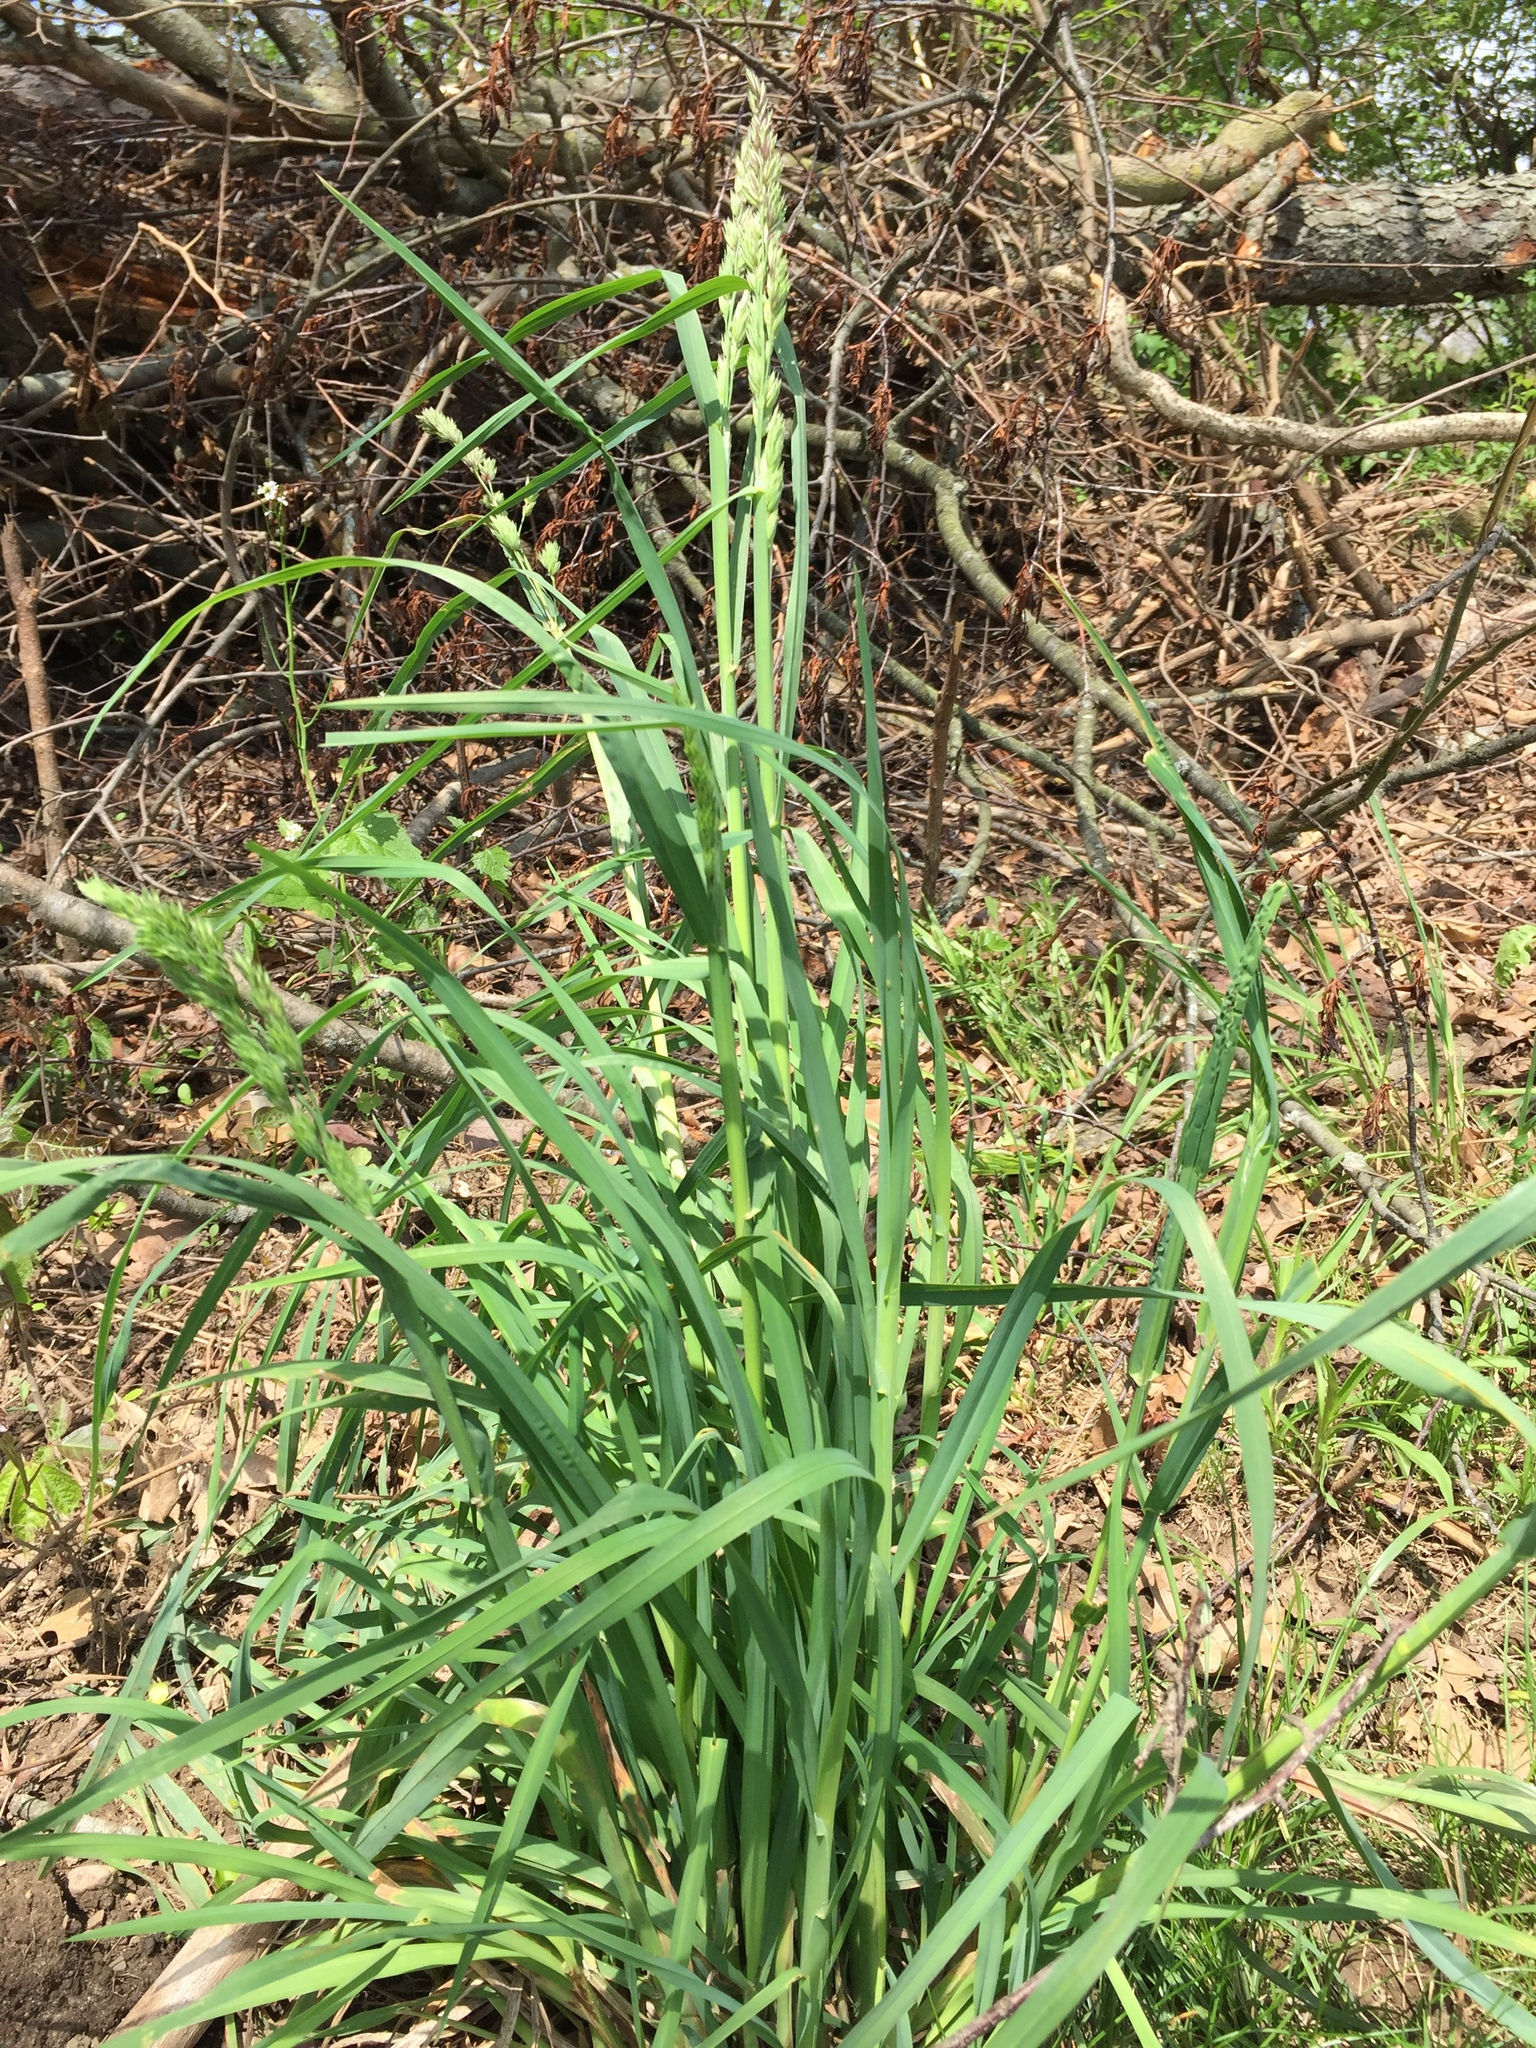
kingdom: Plantae
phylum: Tracheophyta
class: Liliopsida
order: Poales
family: Poaceae
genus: Dactylis
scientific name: Dactylis glomerata
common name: Orchardgrass
